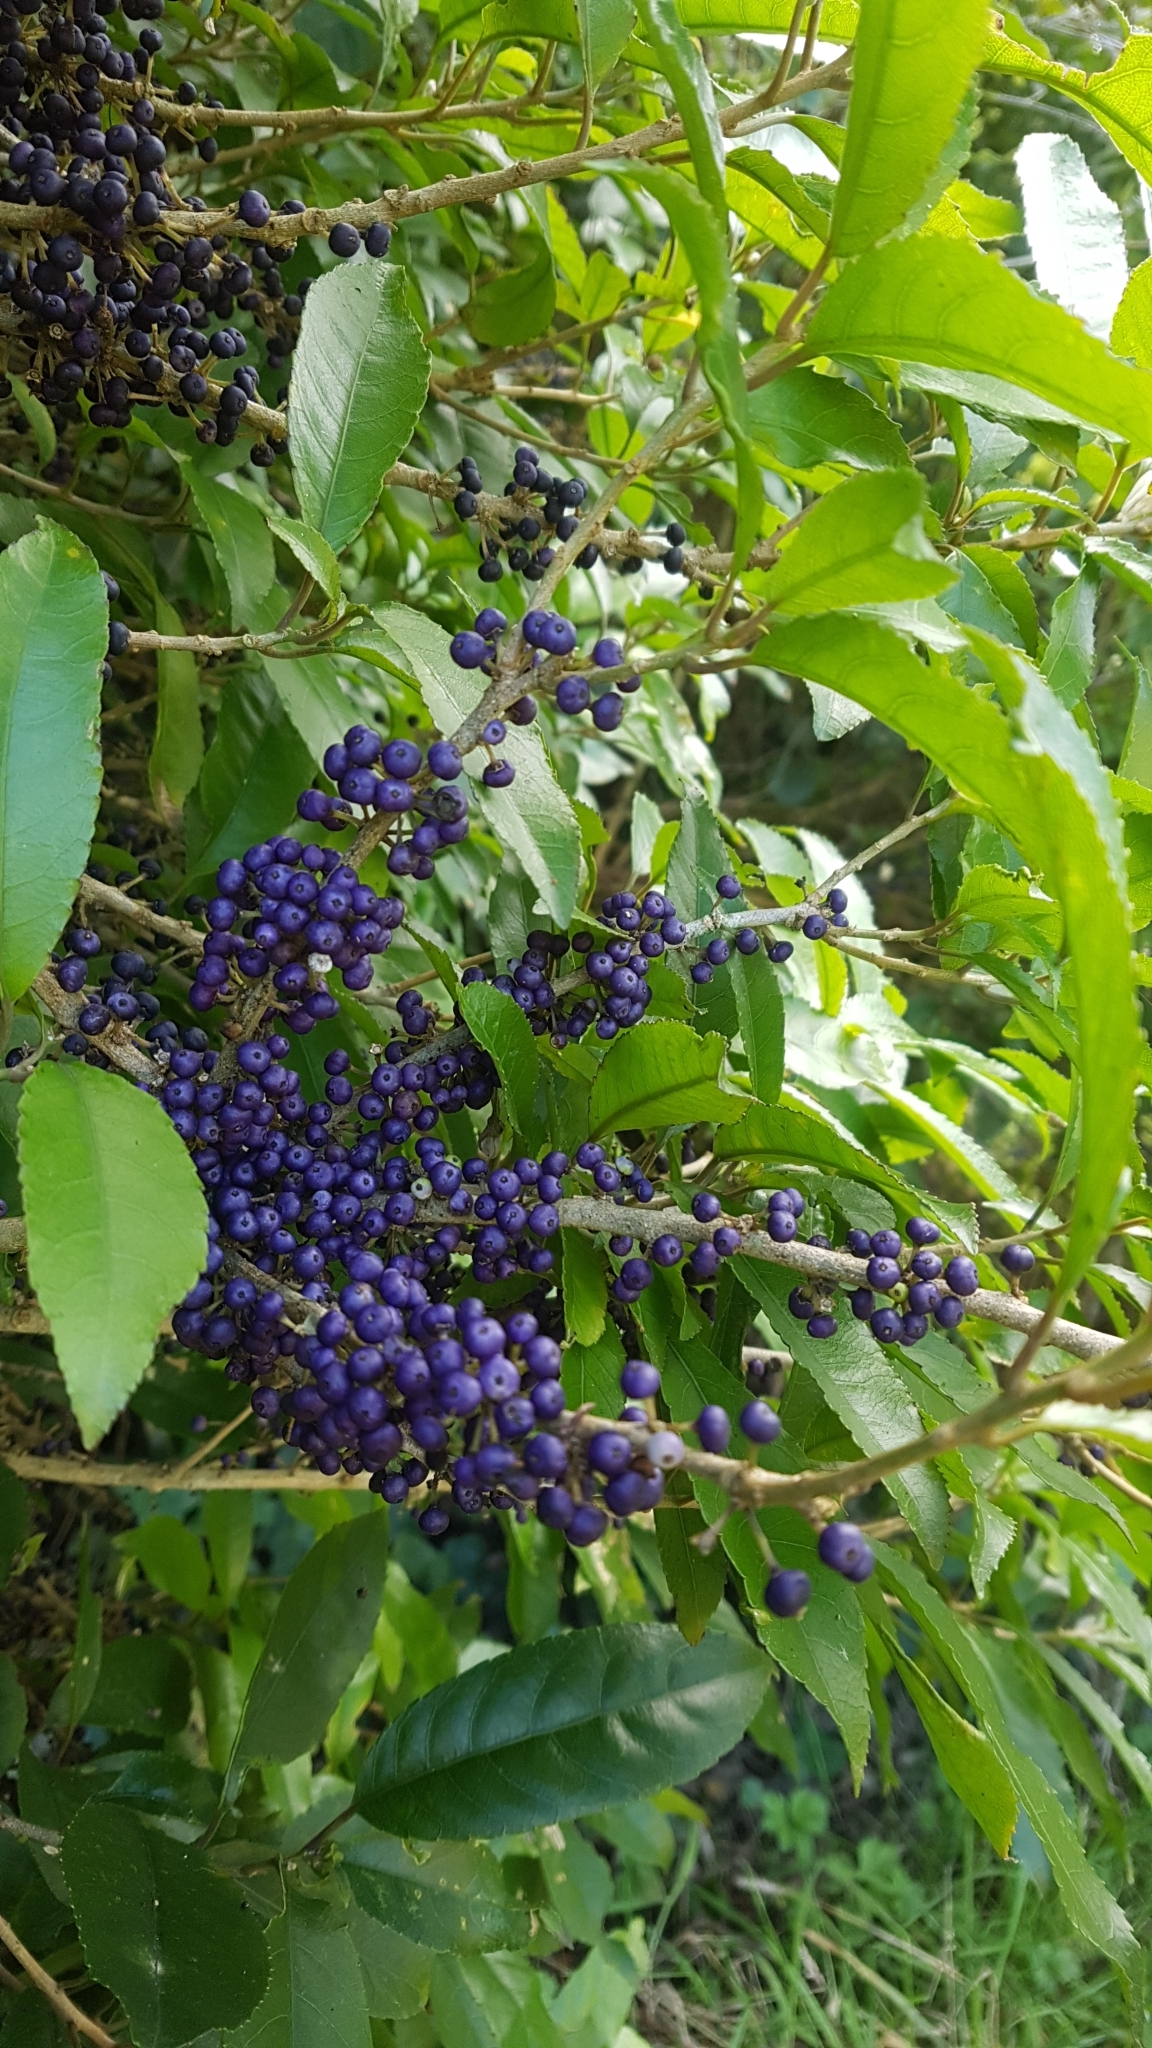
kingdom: Plantae
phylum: Tracheophyta
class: Magnoliopsida
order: Malpighiales
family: Violaceae
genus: Melicytus
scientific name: Melicytus ramiflorus
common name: Mahoe
